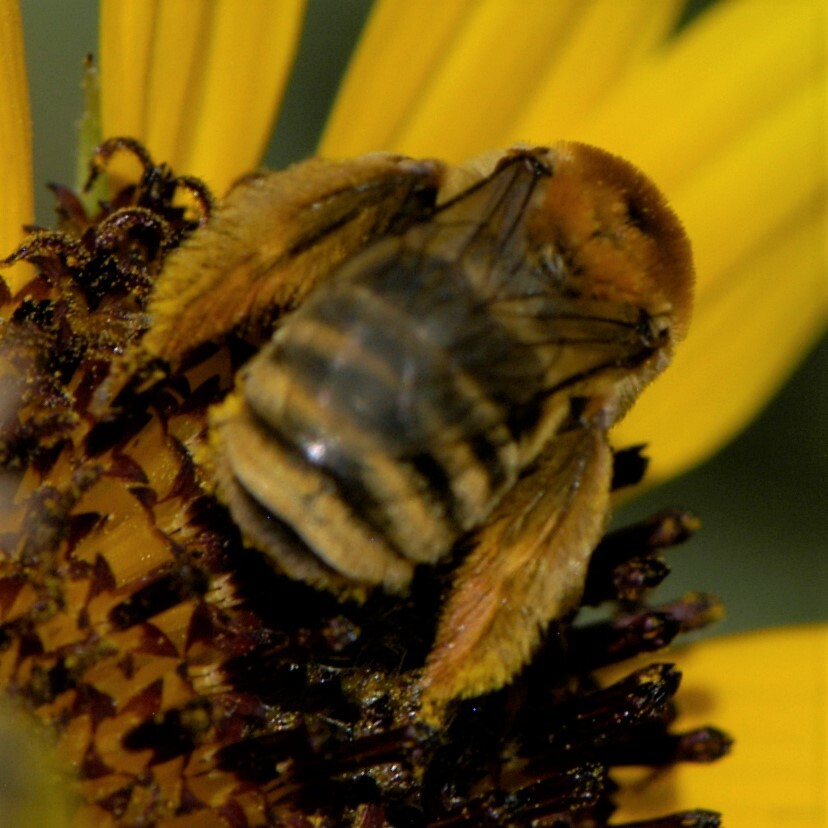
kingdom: Animalia
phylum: Arthropoda
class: Insecta
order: Hymenoptera
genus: Eumelissodes
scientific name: Eumelissodes
